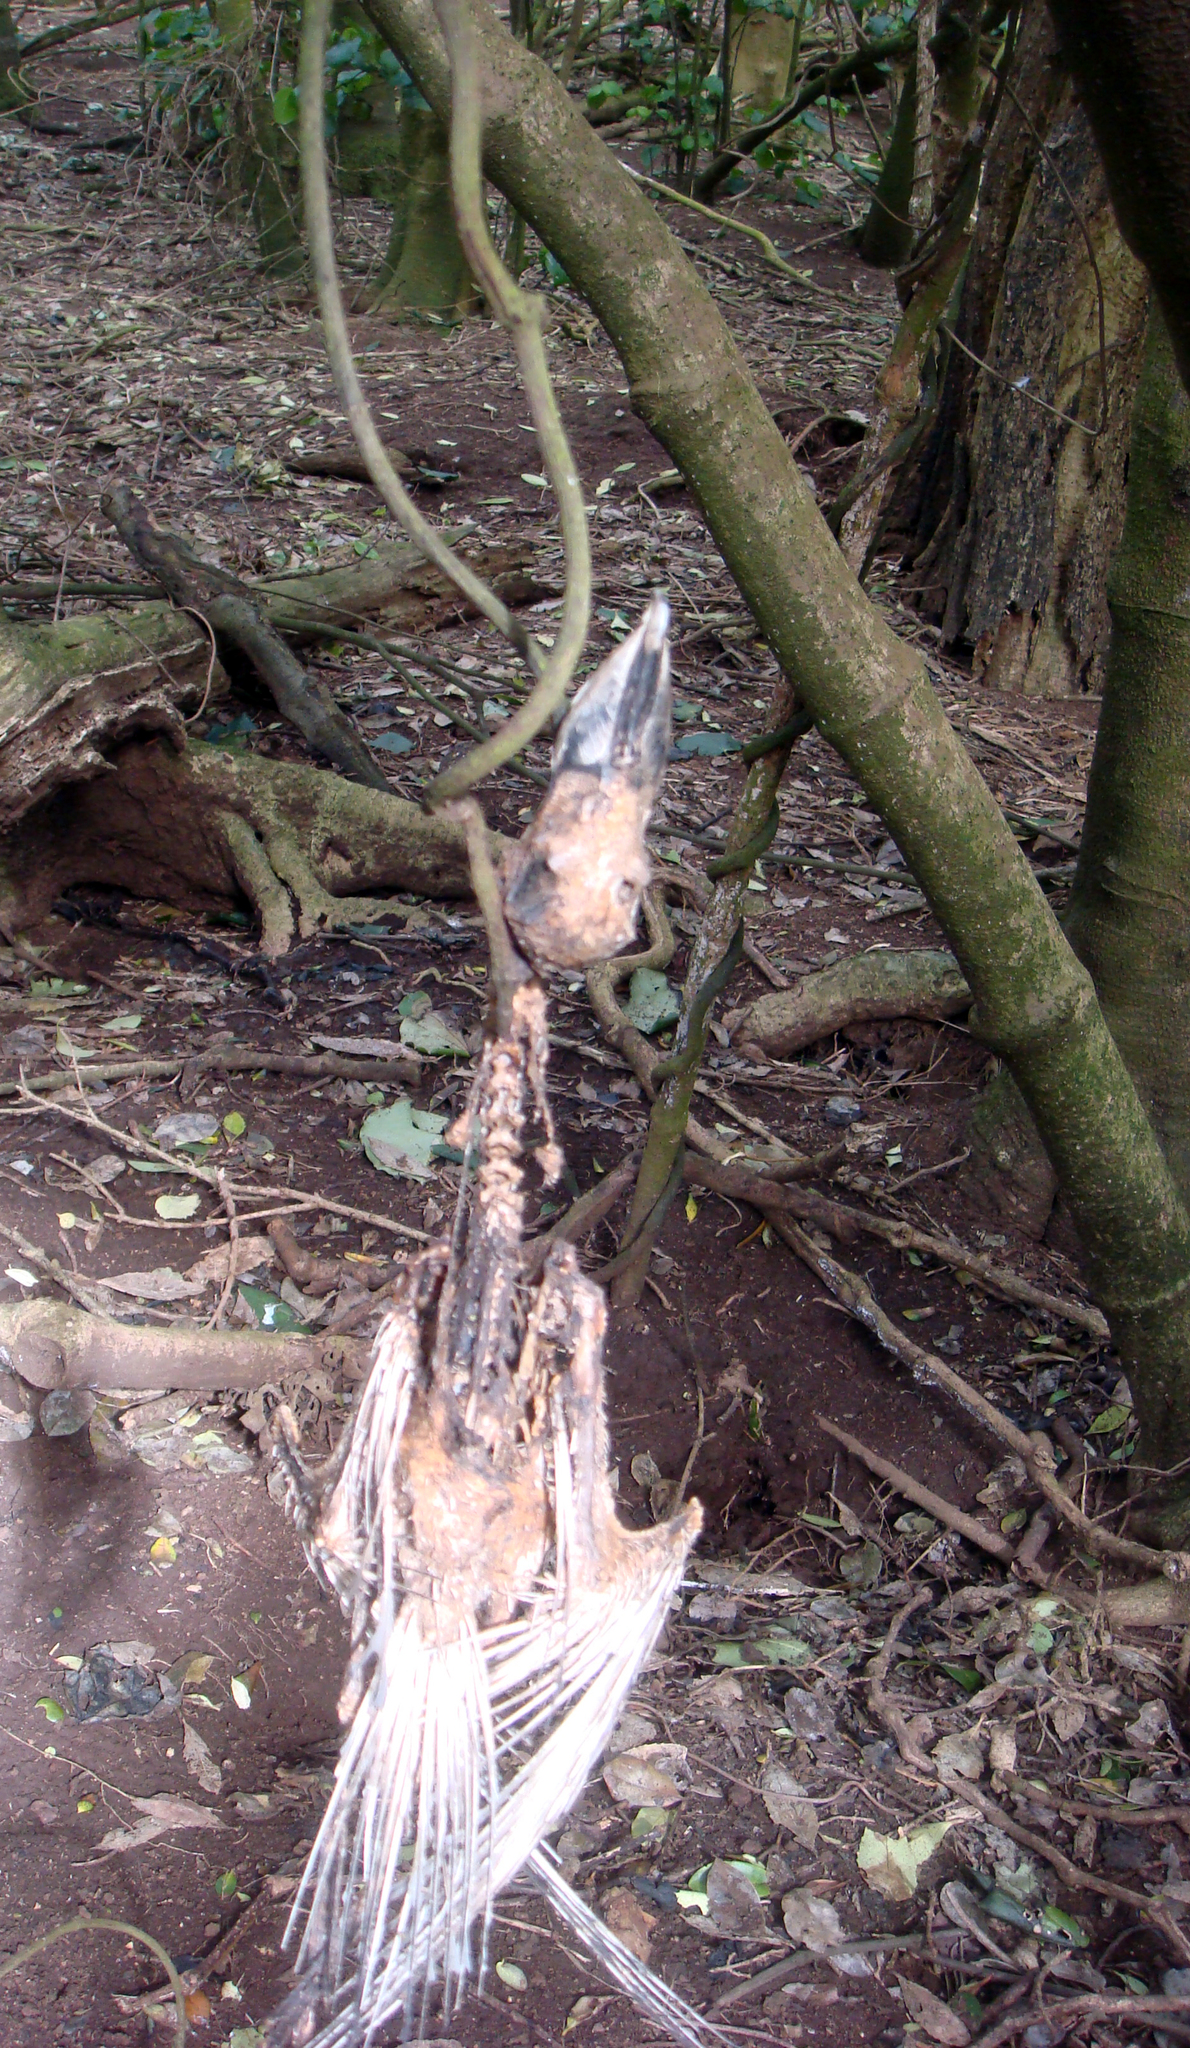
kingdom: Animalia
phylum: Chordata
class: Aves
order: Procellariiformes
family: Procellariidae
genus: Pachyptila
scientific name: Pachyptila vittata
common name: Broad-billed prion
